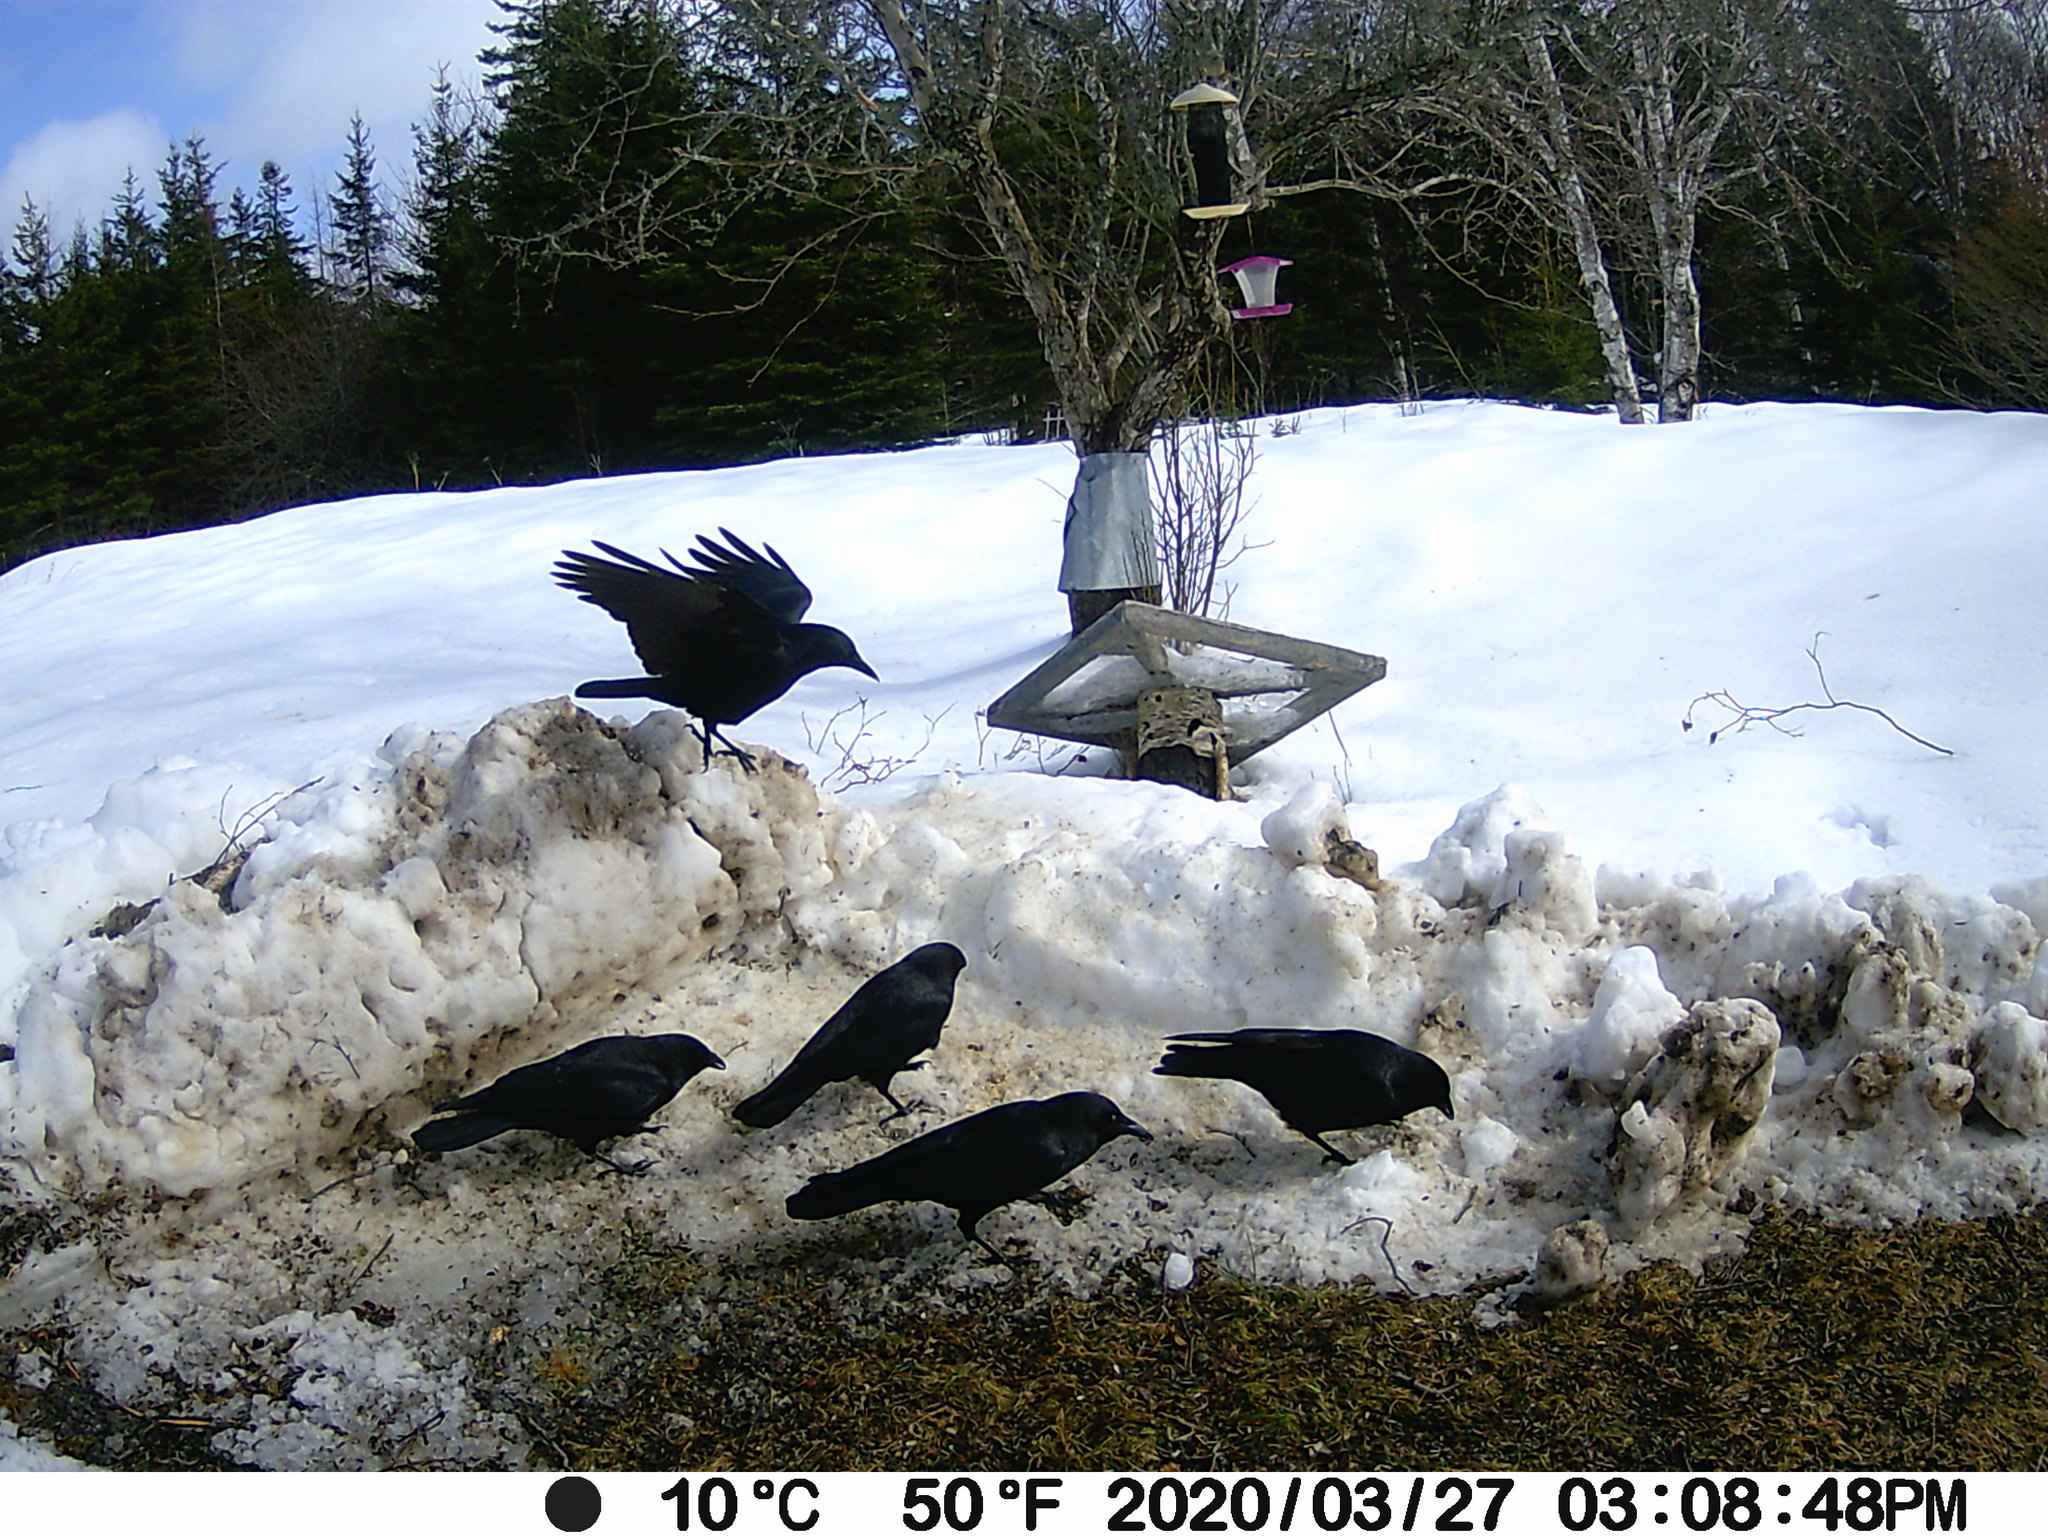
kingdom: Animalia
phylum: Chordata
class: Aves
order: Passeriformes
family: Corvidae
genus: Corvus
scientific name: Corvus brachyrhynchos
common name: American crow
